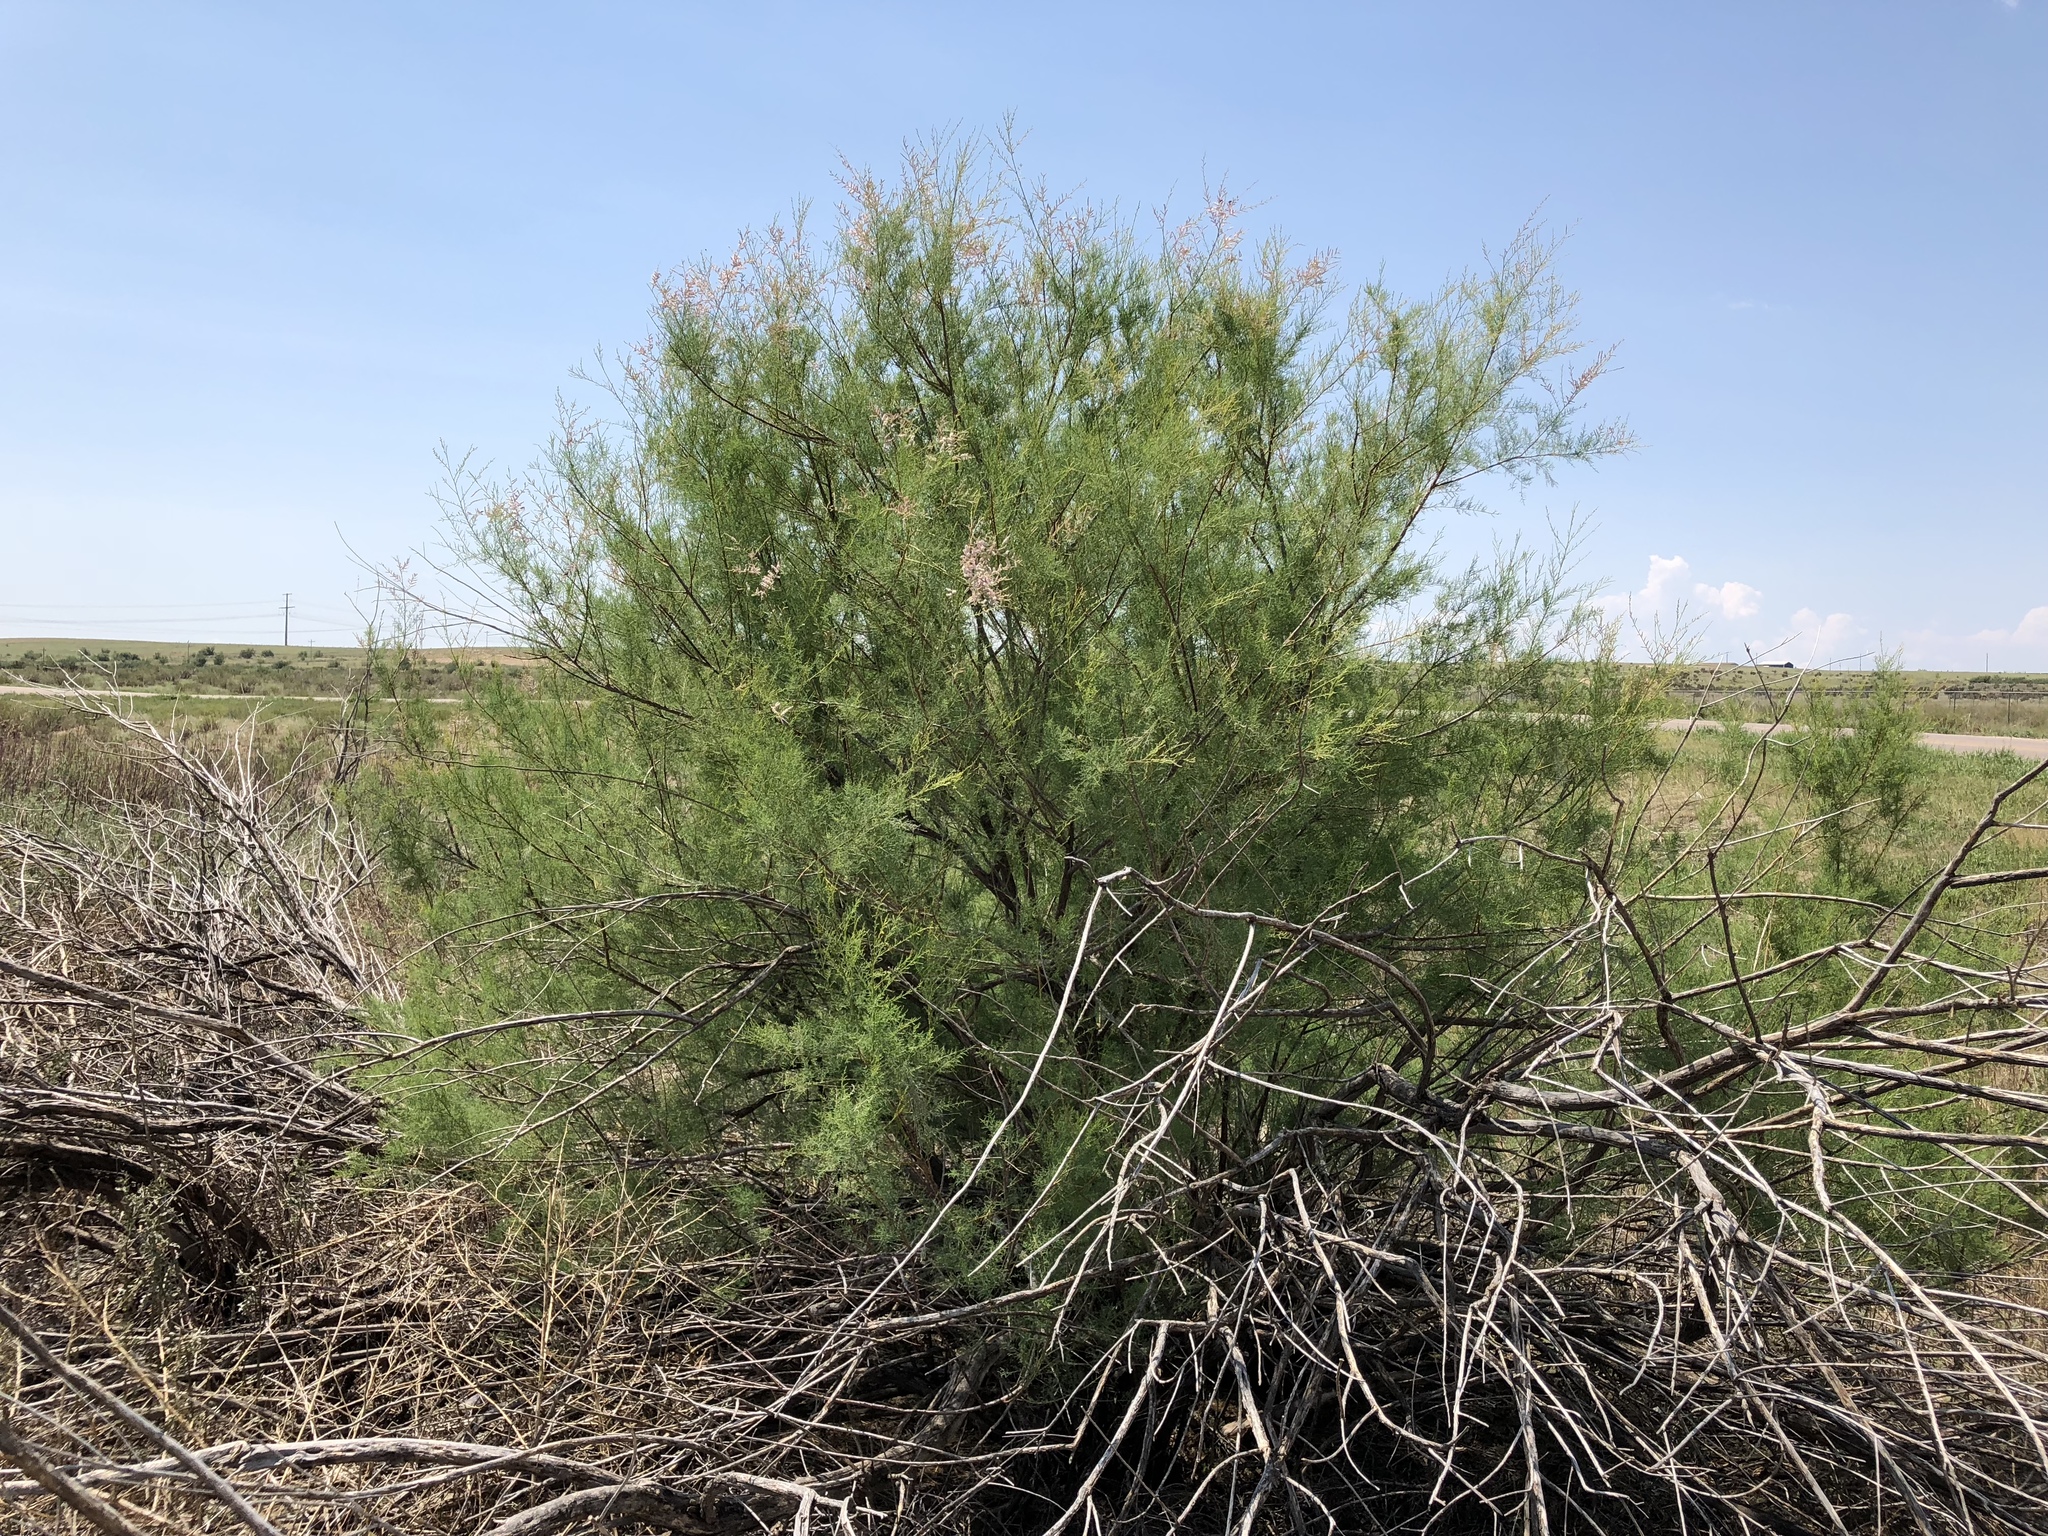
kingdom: Plantae
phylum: Tracheophyta
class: Magnoliopsida
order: Caryophyllales
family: Tamaricaceae
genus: Tamarix
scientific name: Tamarix chinensis
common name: Chinese tamarisk
